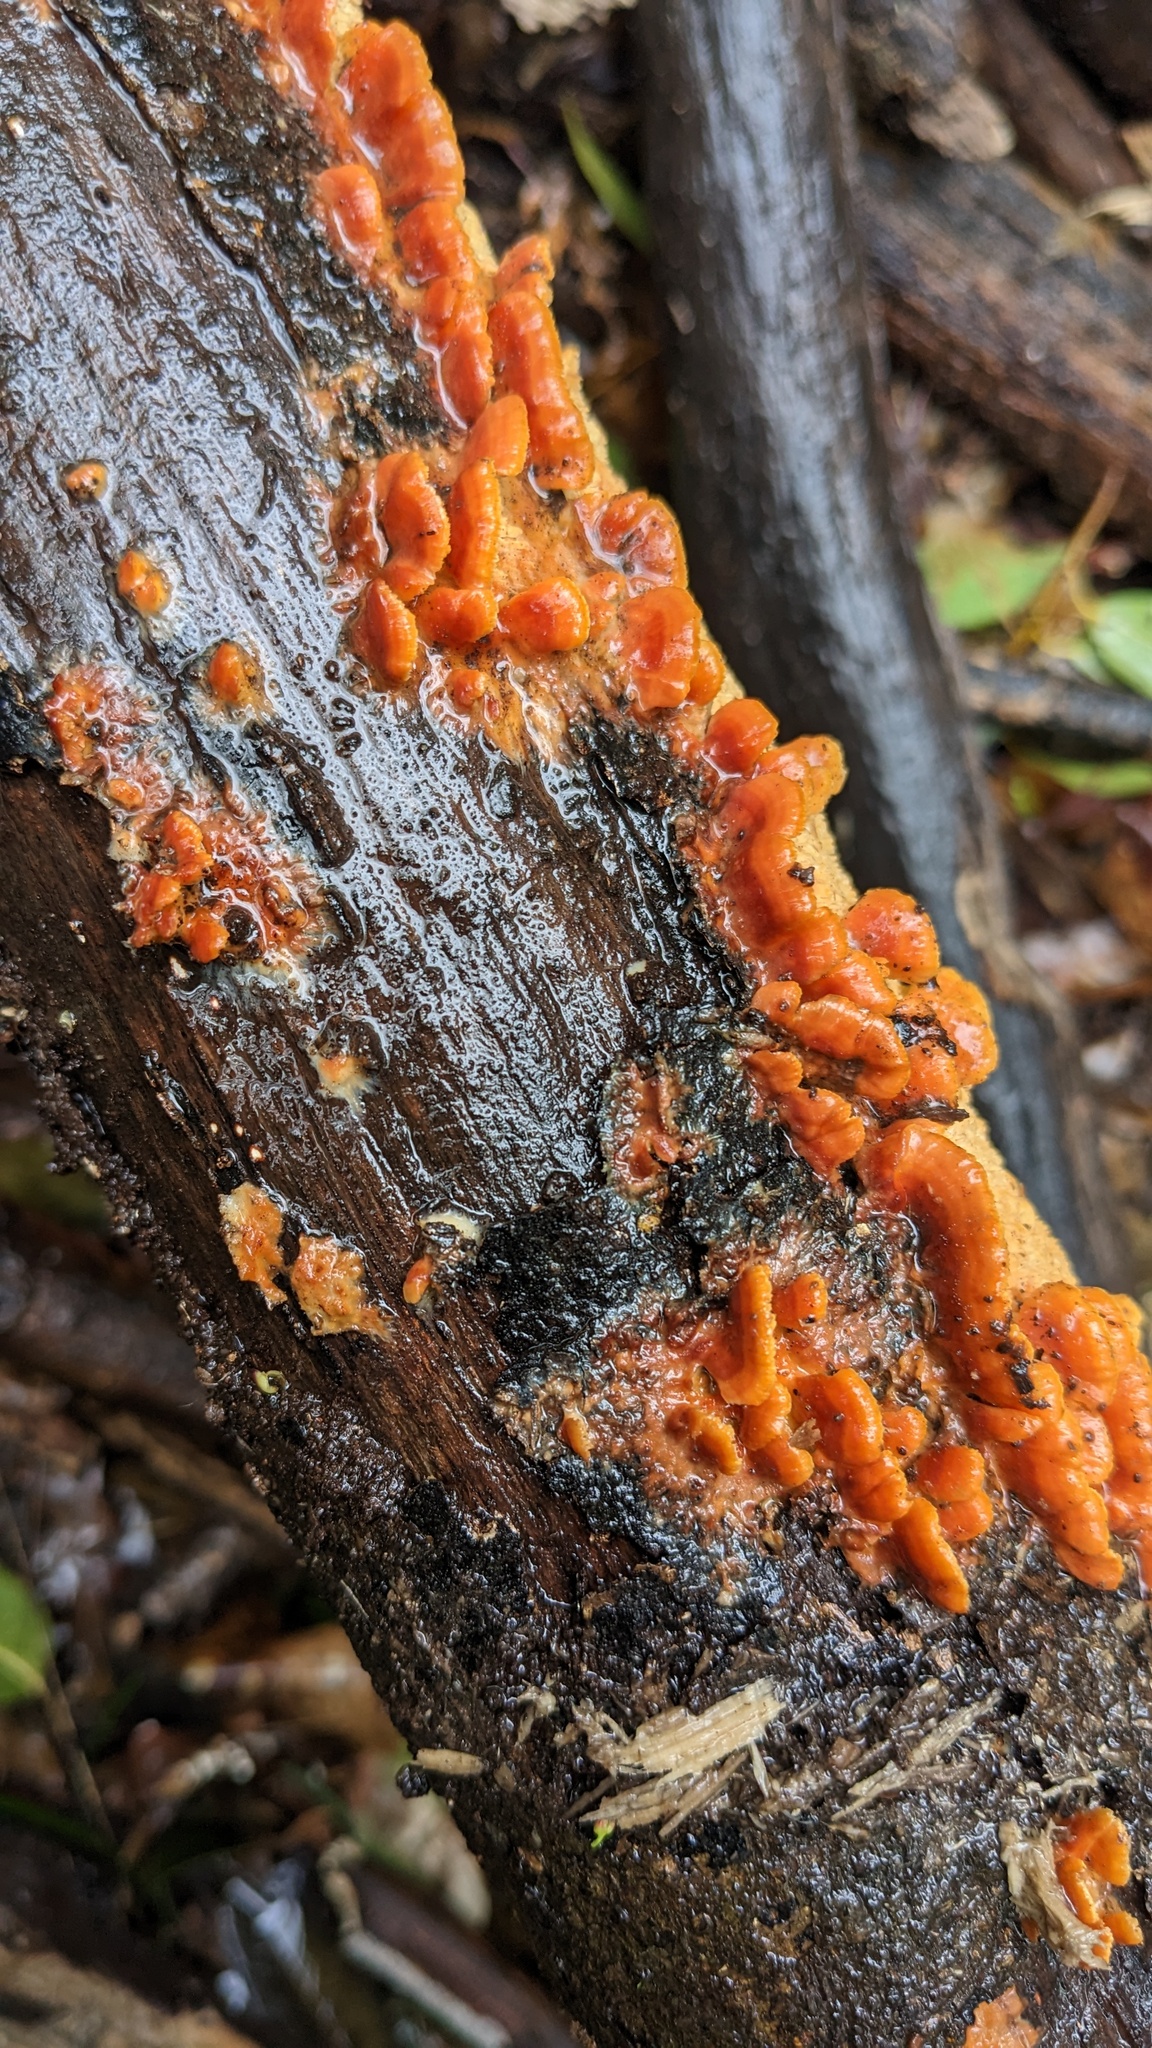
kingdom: Fungi
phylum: Basidiomycota
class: Agaricomycetes
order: Polyporales
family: Irpicaceae
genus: Irpex
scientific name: Irpex consors
